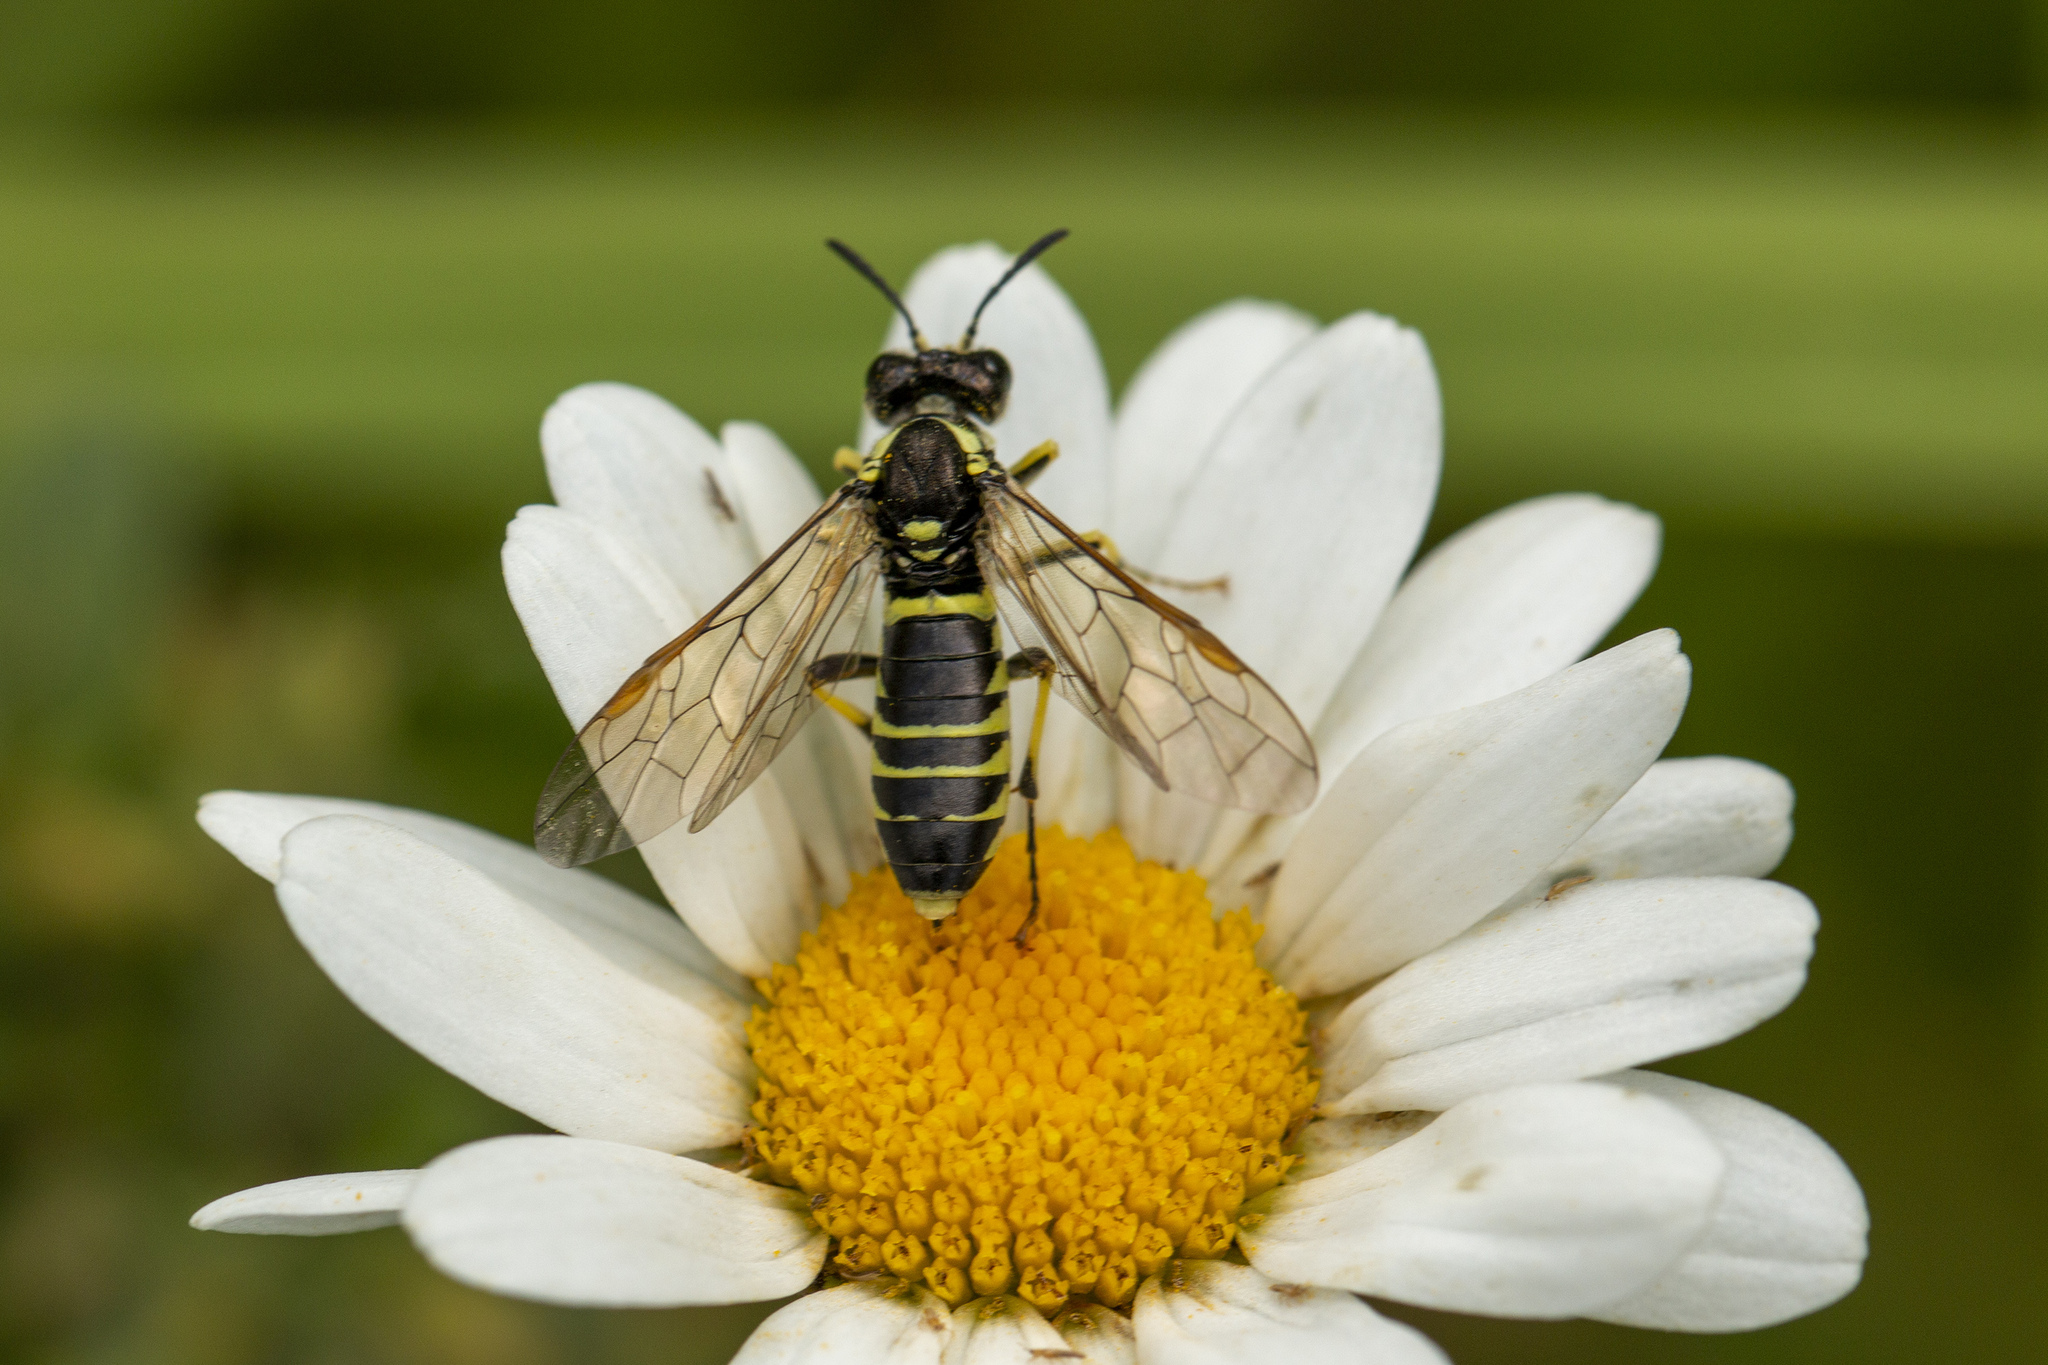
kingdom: Animalia
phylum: Arthropoda
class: Insecta
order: Hymenoptera
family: Tenthredinidae
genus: Tenthredo
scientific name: Tenthredo notha
